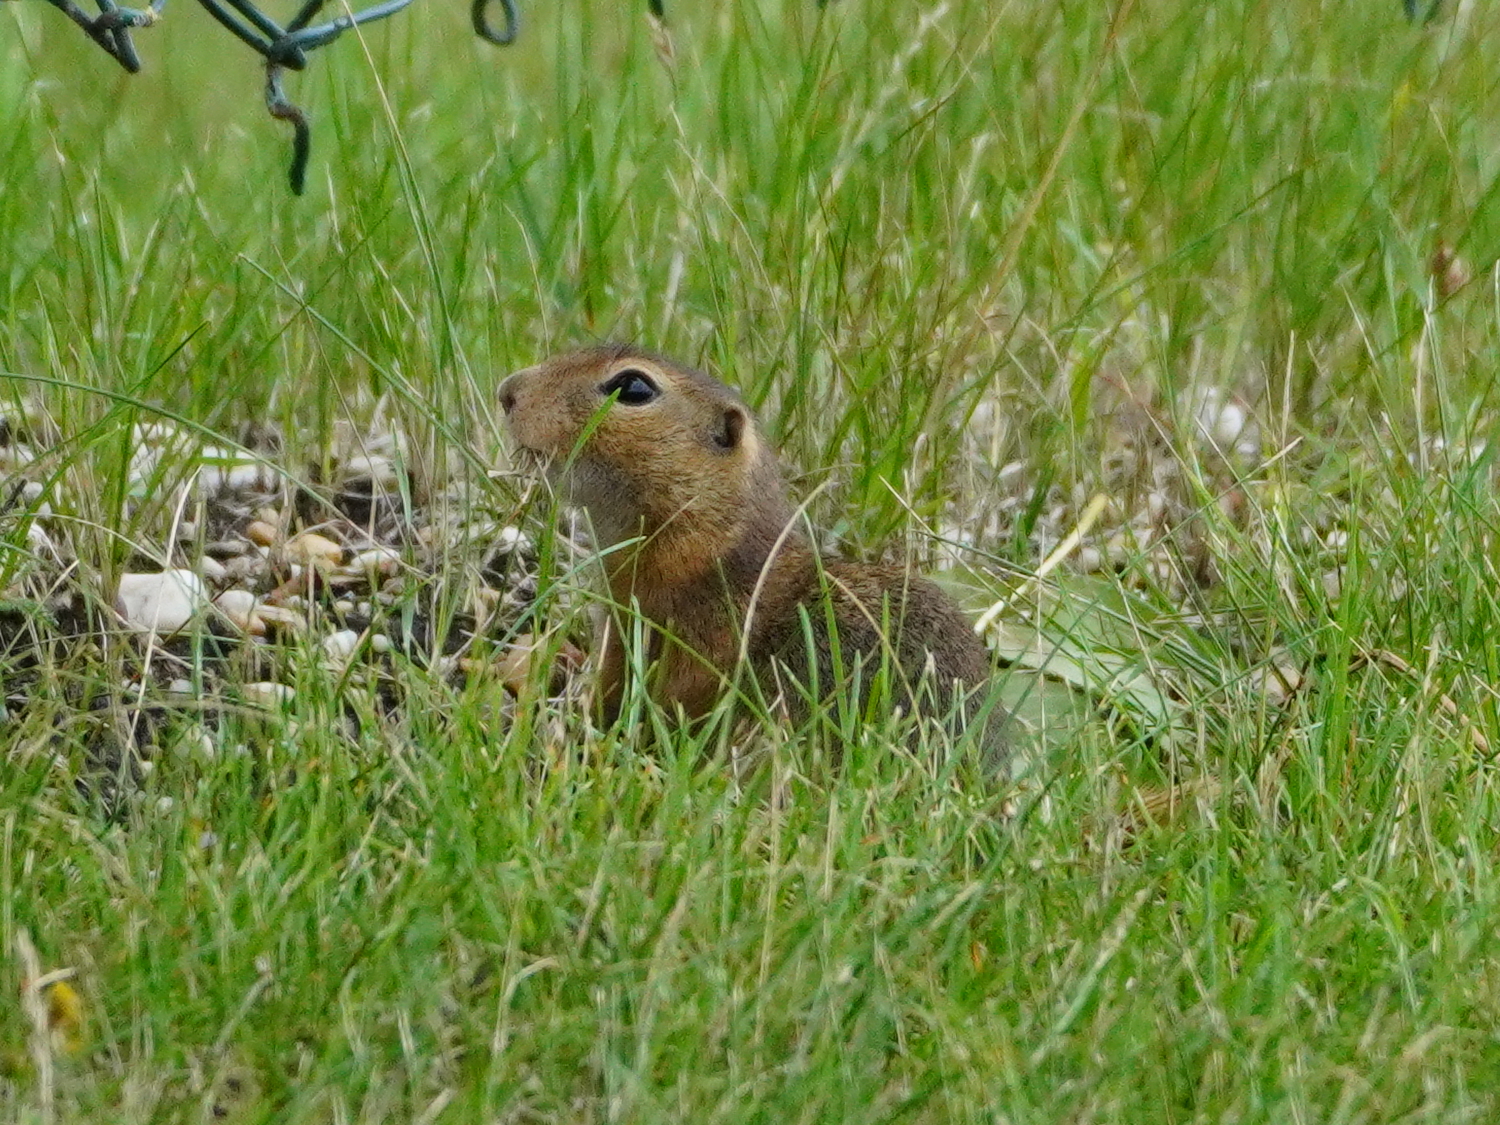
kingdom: Animalia
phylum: Chordata
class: Mammalia
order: Rodentia
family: Sciuridae
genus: Spermophilus
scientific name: Spermophilus citellus
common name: European ground squirrel
